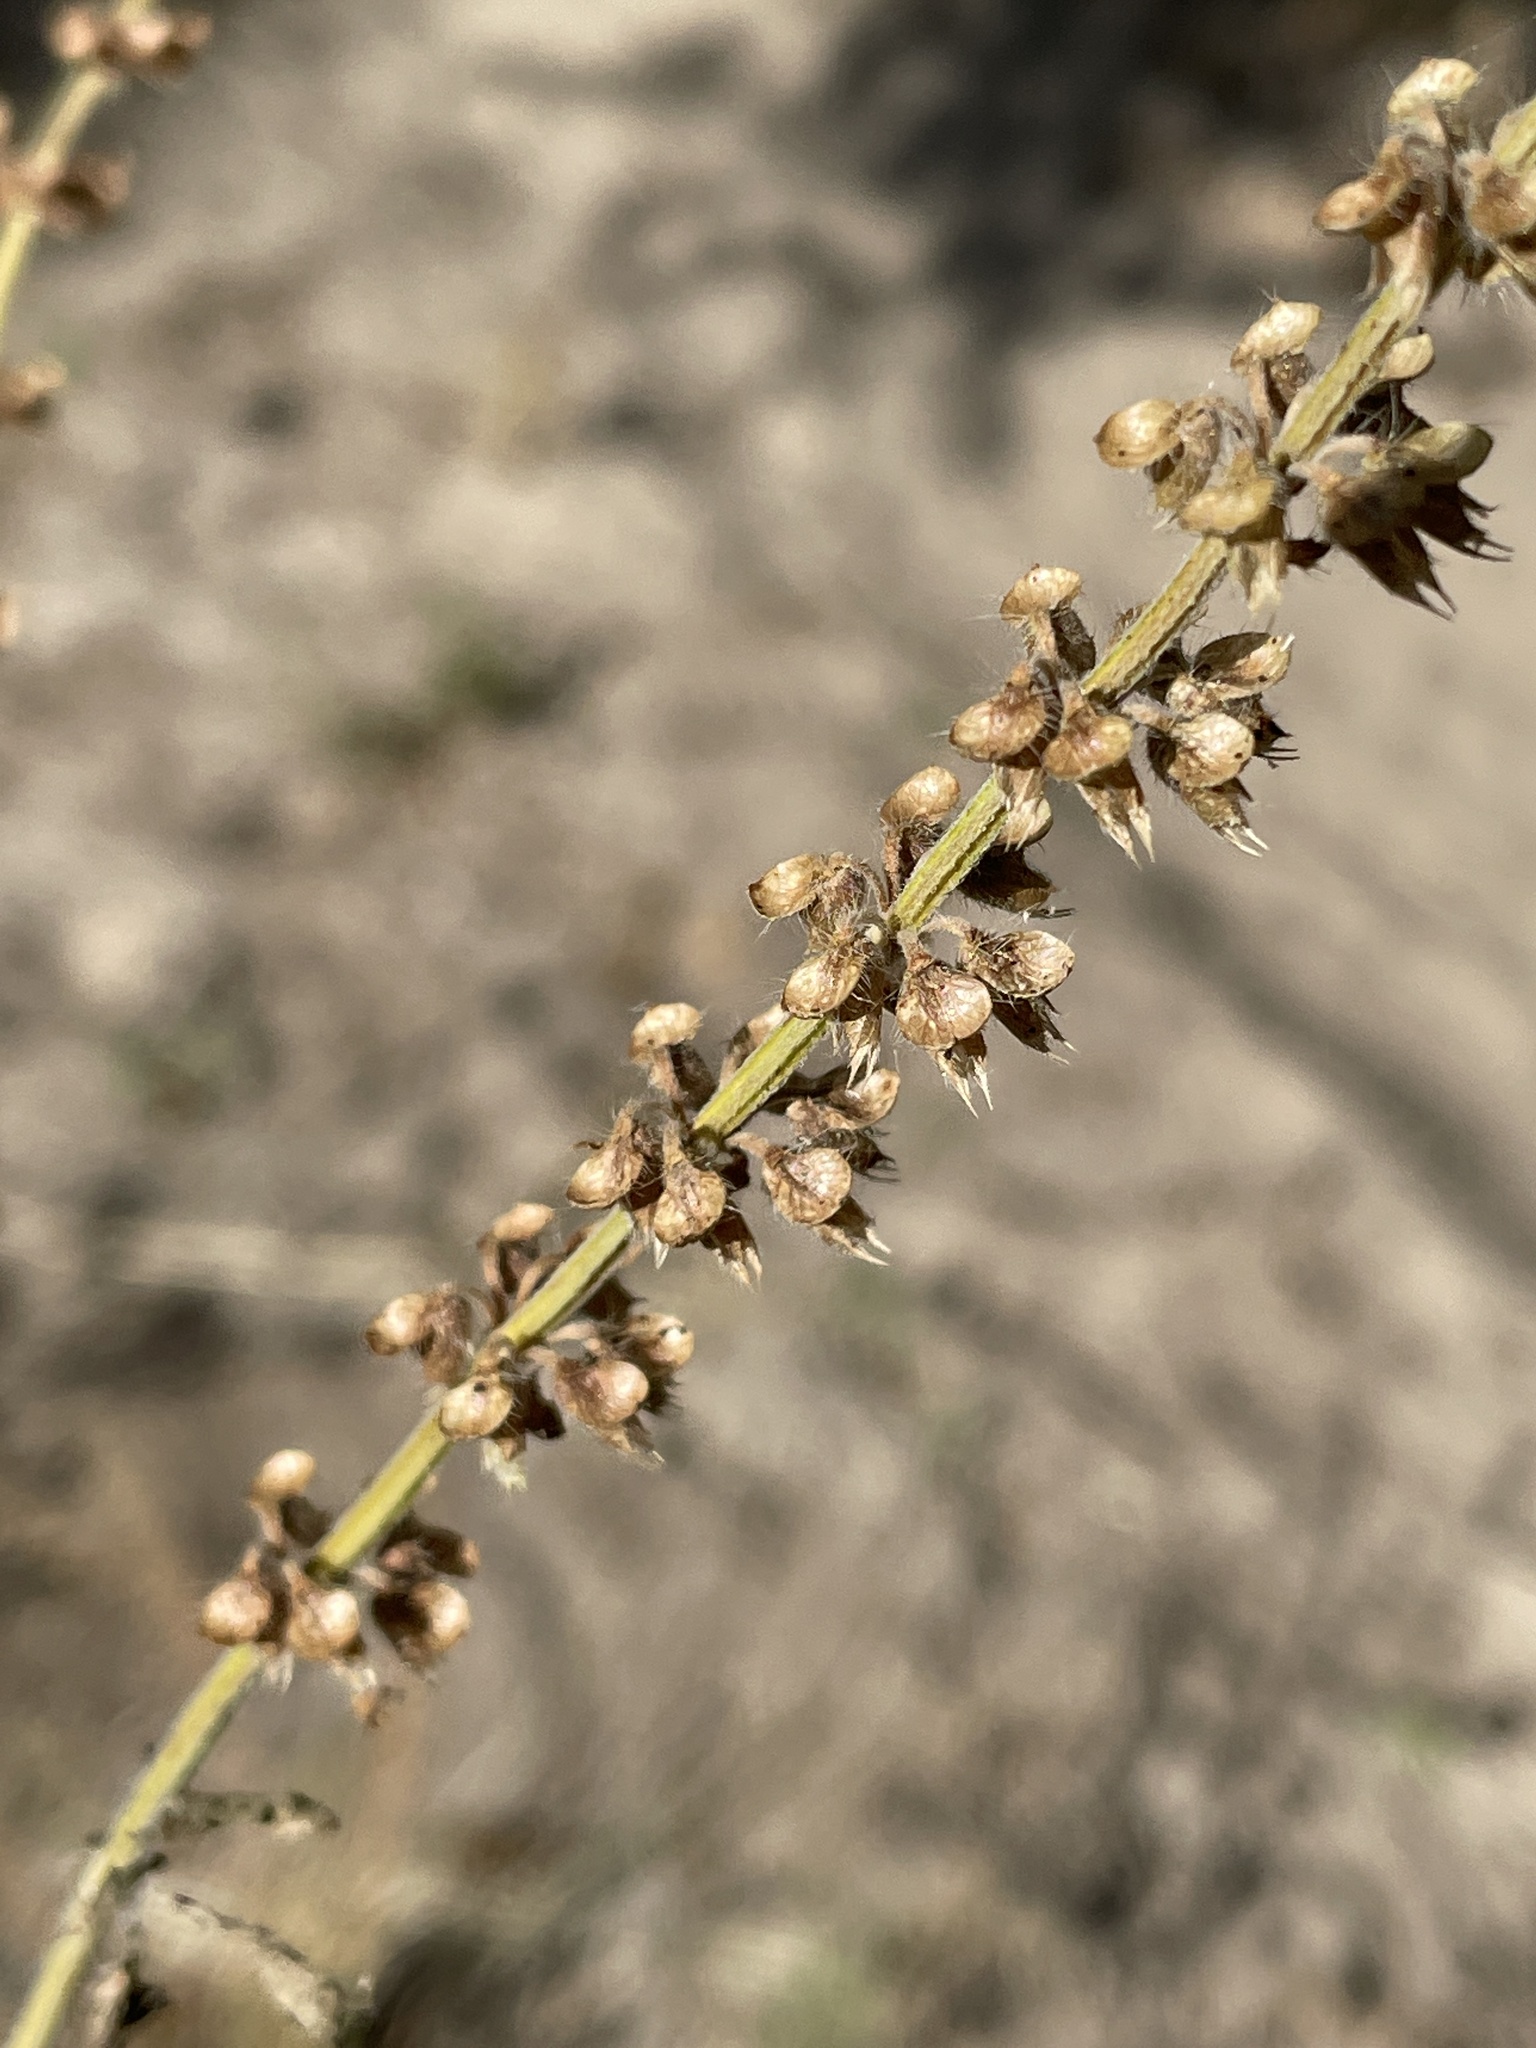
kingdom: Plantae
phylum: Tracheophyta
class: Magnoliopsida
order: Lamiales
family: Lamiaceae
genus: Ocimum
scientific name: Ocimum gratissimum
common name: African basil
